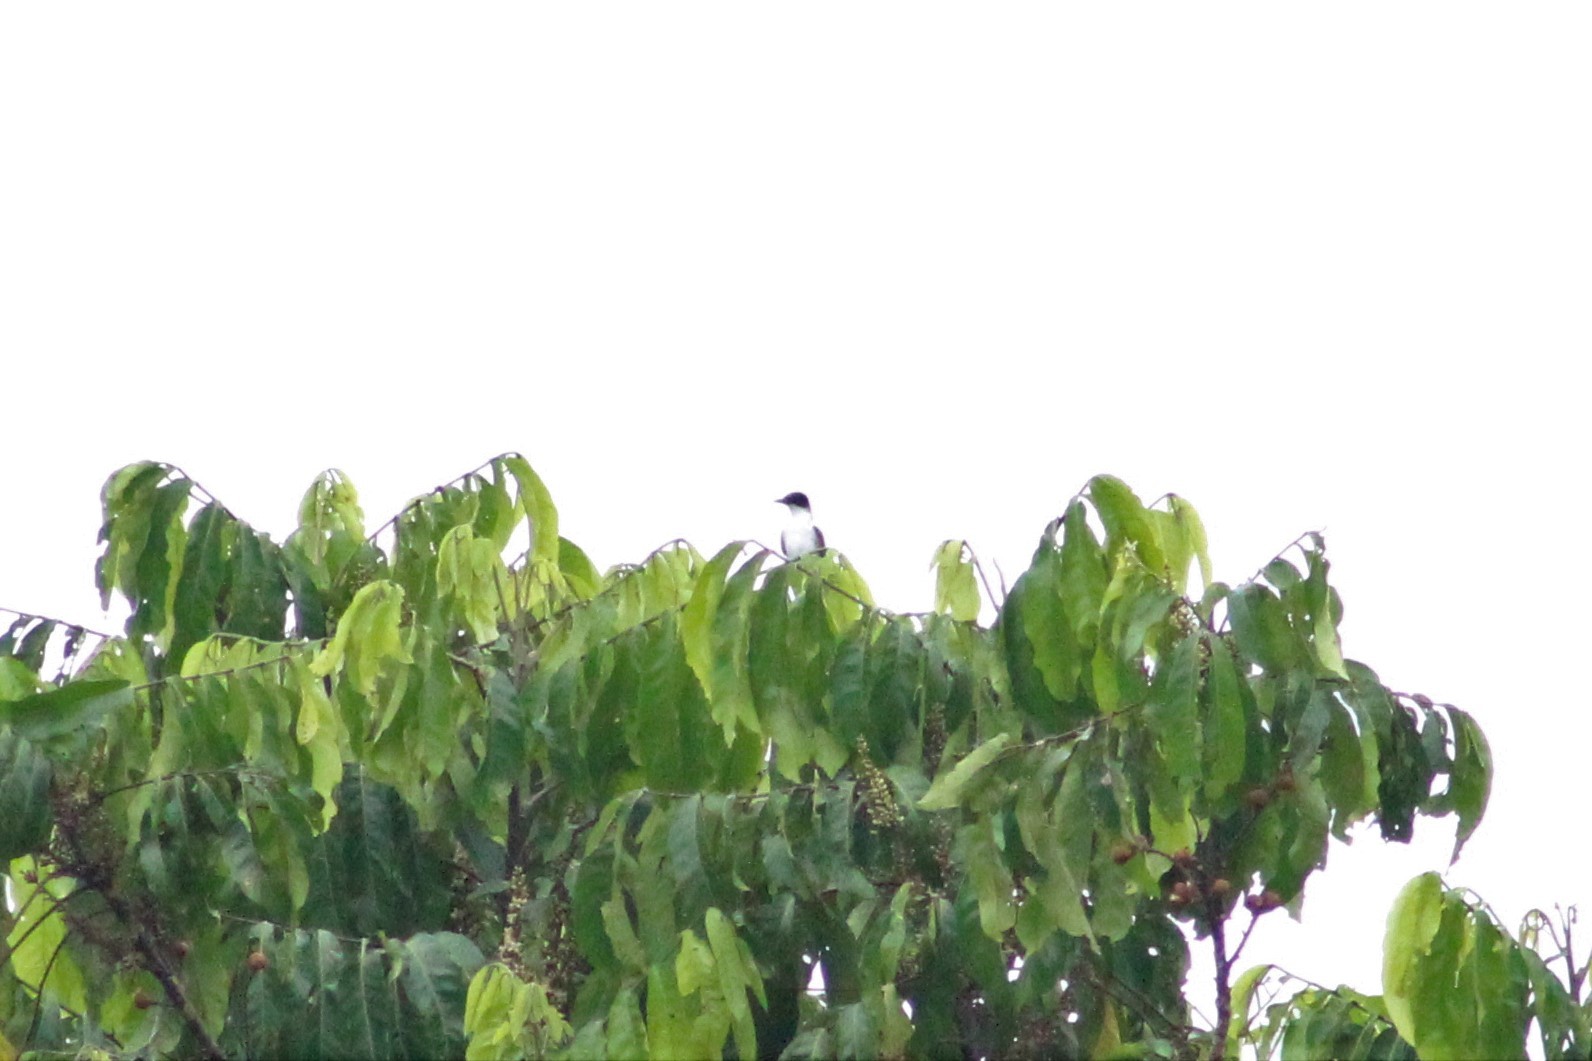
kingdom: Animalia
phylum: Chordata
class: Aves
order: Passeriformes
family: Tyrannidae
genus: Tyrannus
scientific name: Tyrannus tyrannus
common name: Eastern kingbird
